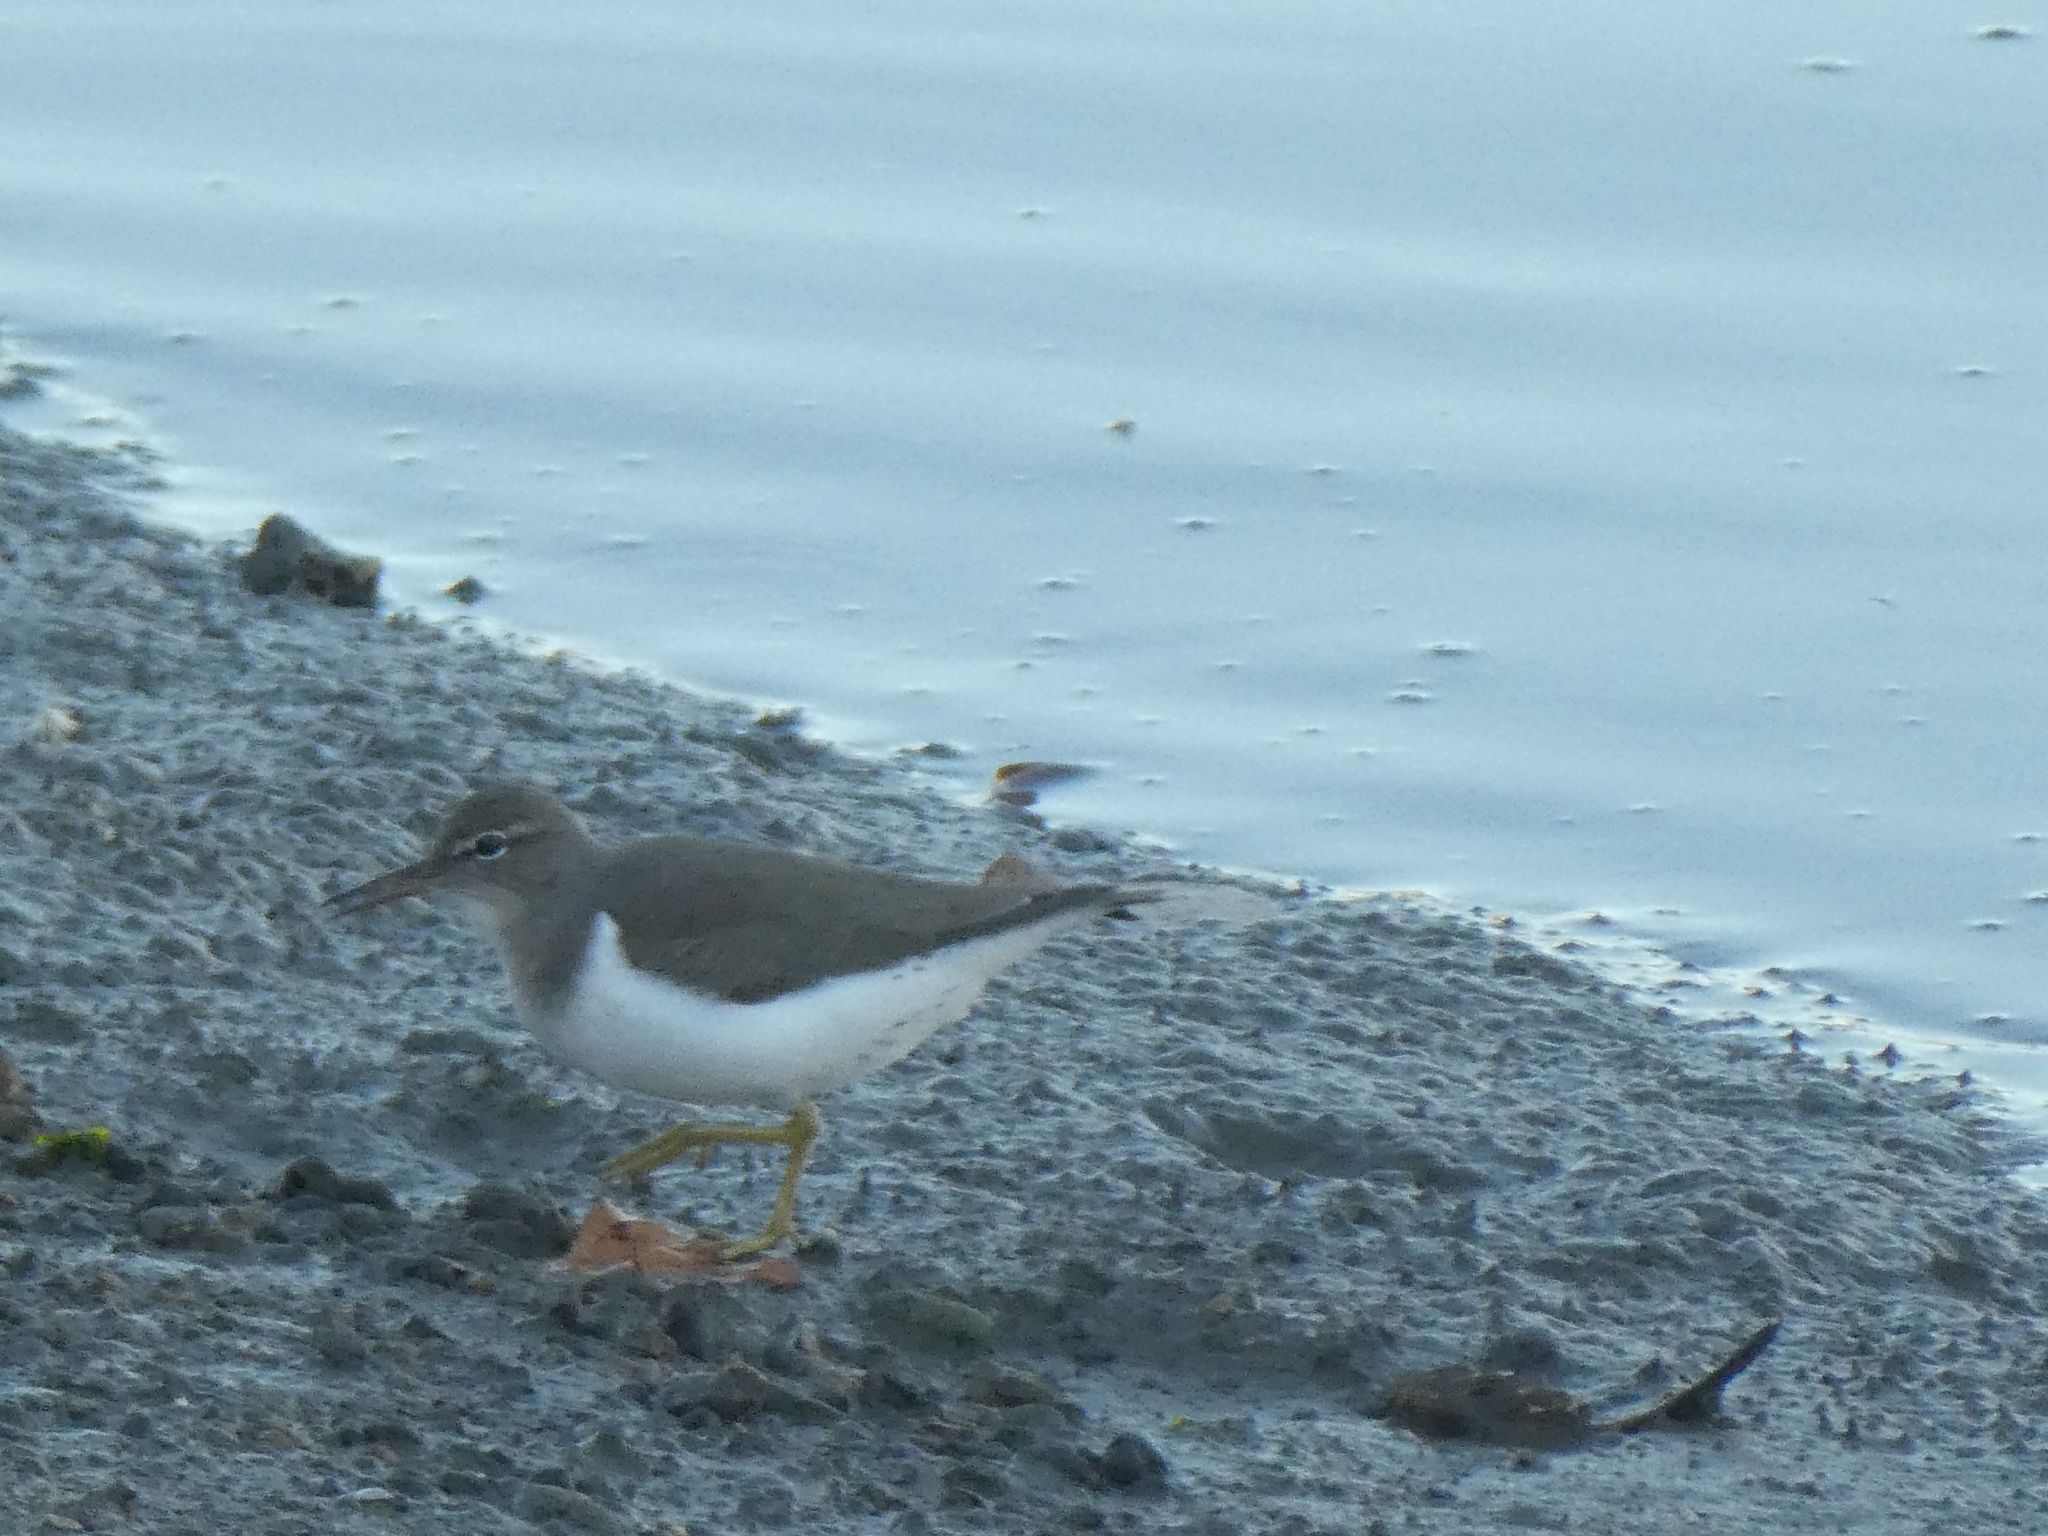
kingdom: Animalia
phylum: Chordata
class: Aves
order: Charadriiformes
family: Scolopacidae
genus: Actitis
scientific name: Actitis macularius
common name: Spotted sandpiper
